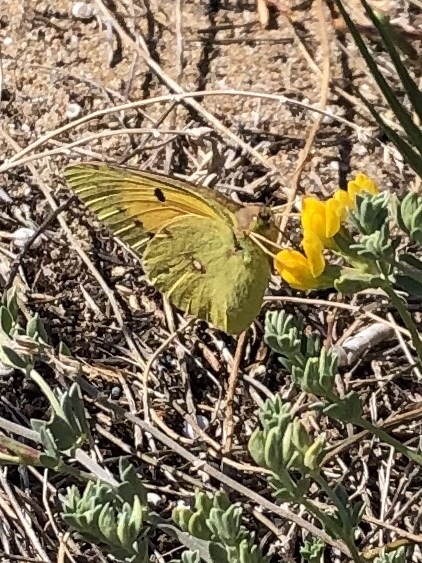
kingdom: Animalia
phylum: Arthropoda
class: Insecta
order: Lepidoptera
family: Pieridae
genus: Colias
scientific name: Colias croceus
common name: Clouded yellow
